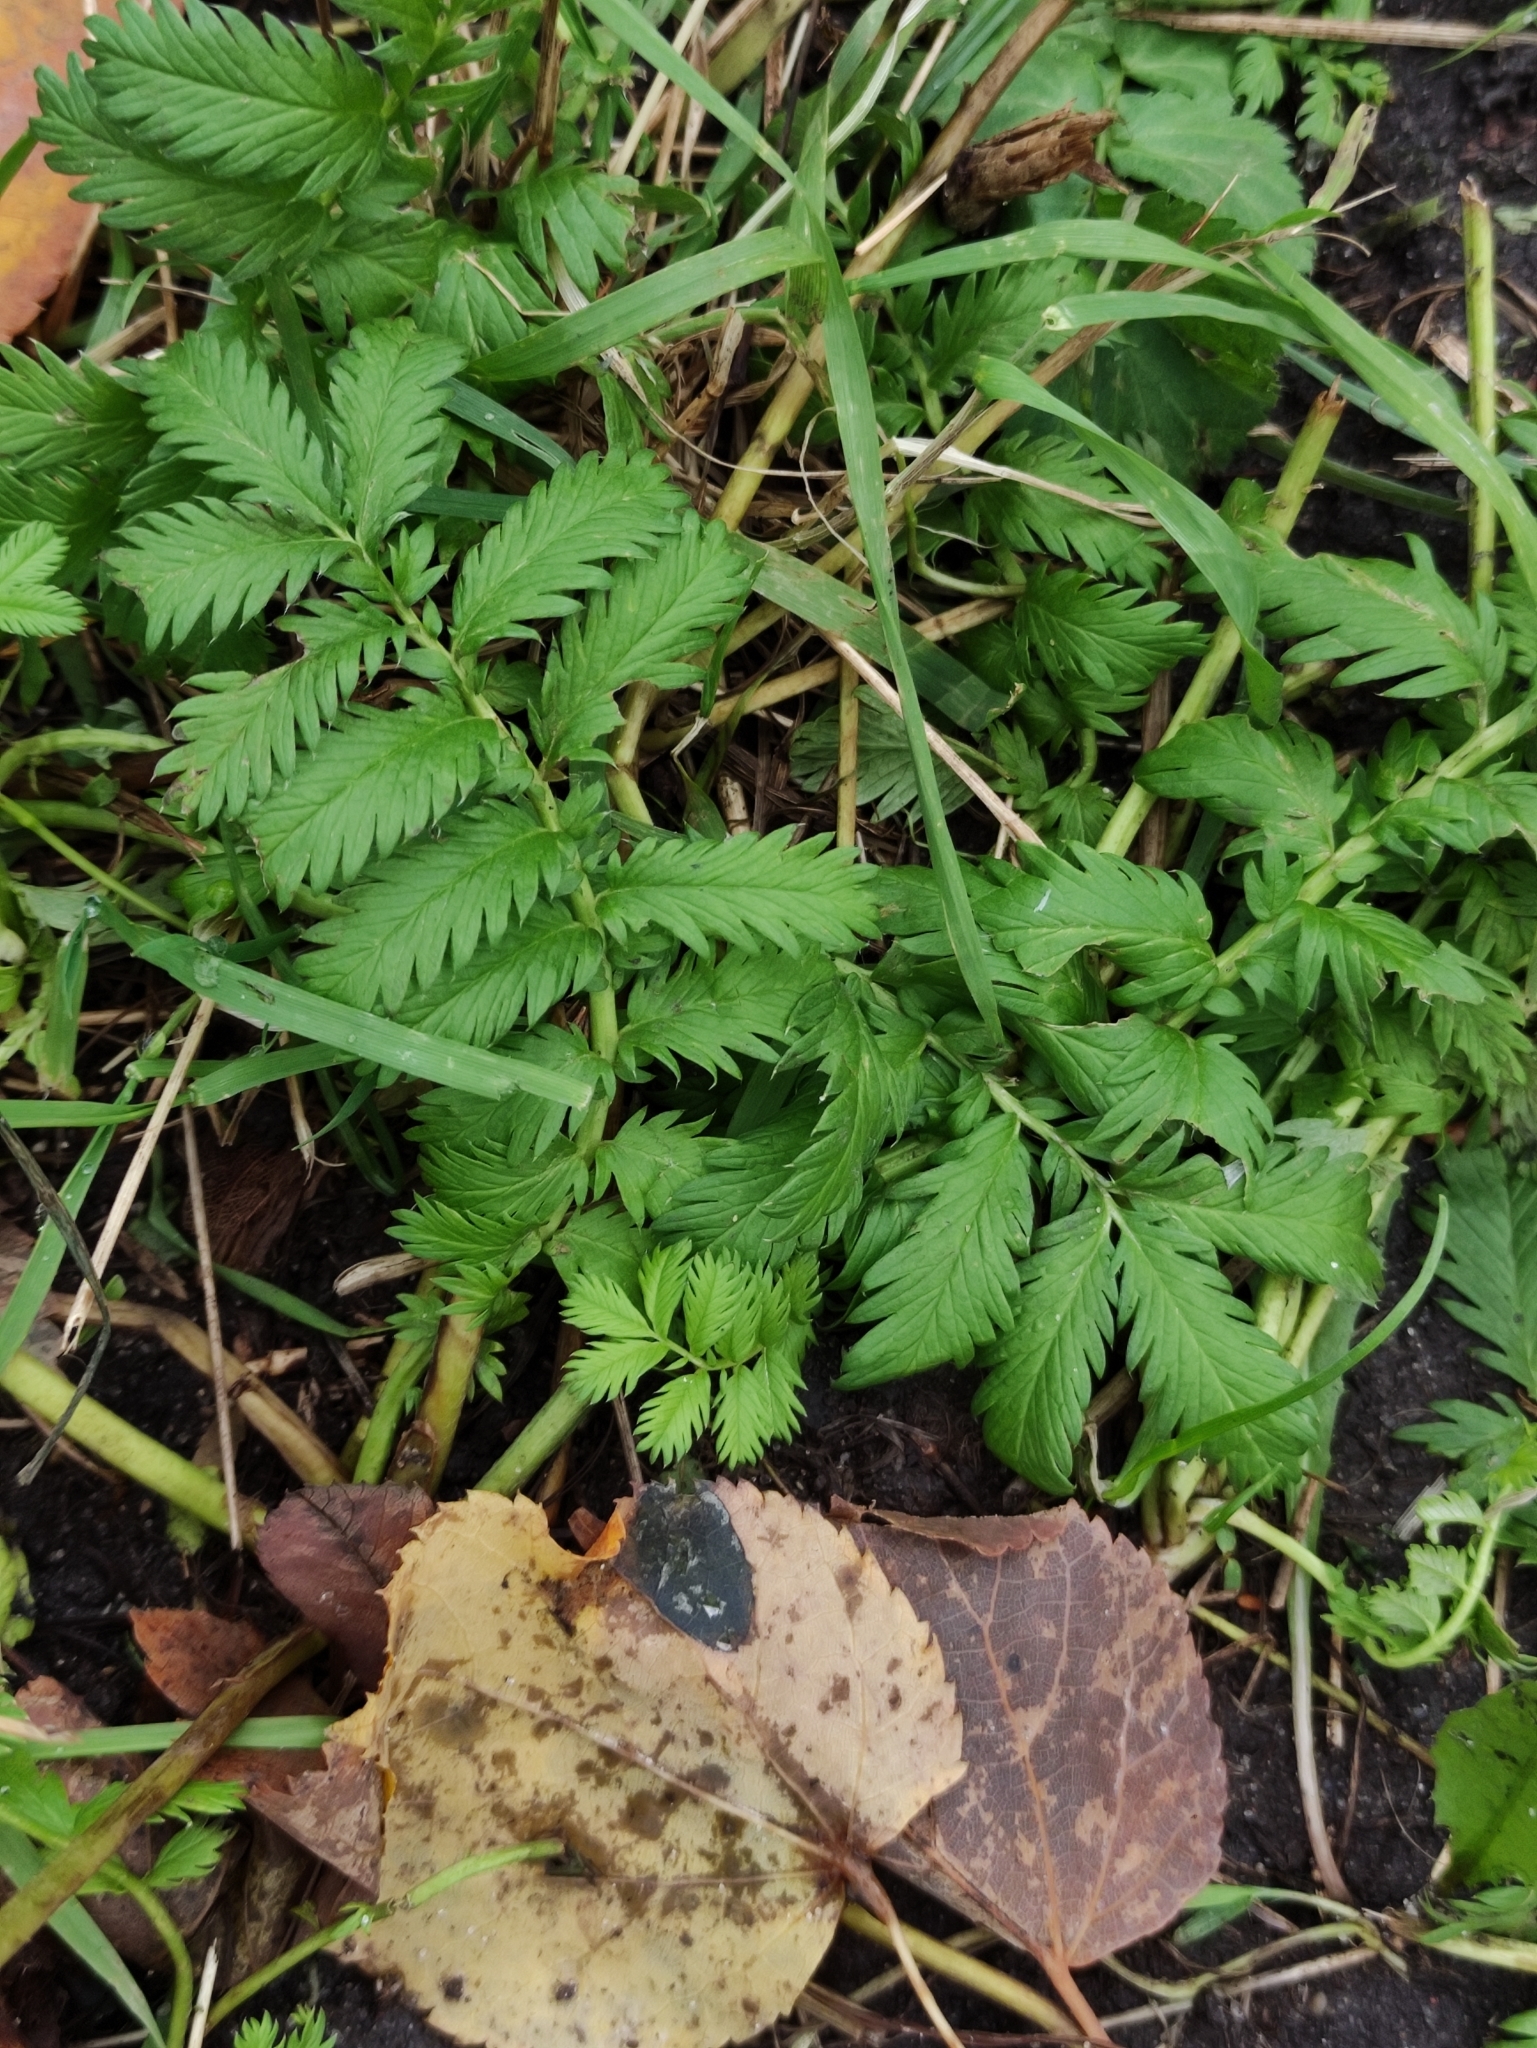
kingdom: Plantae
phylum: Tracheophyta
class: Magnoliopsida
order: Rosales
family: Rosaceae
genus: Argentina
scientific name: Argentina anserina
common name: Common silverweed
